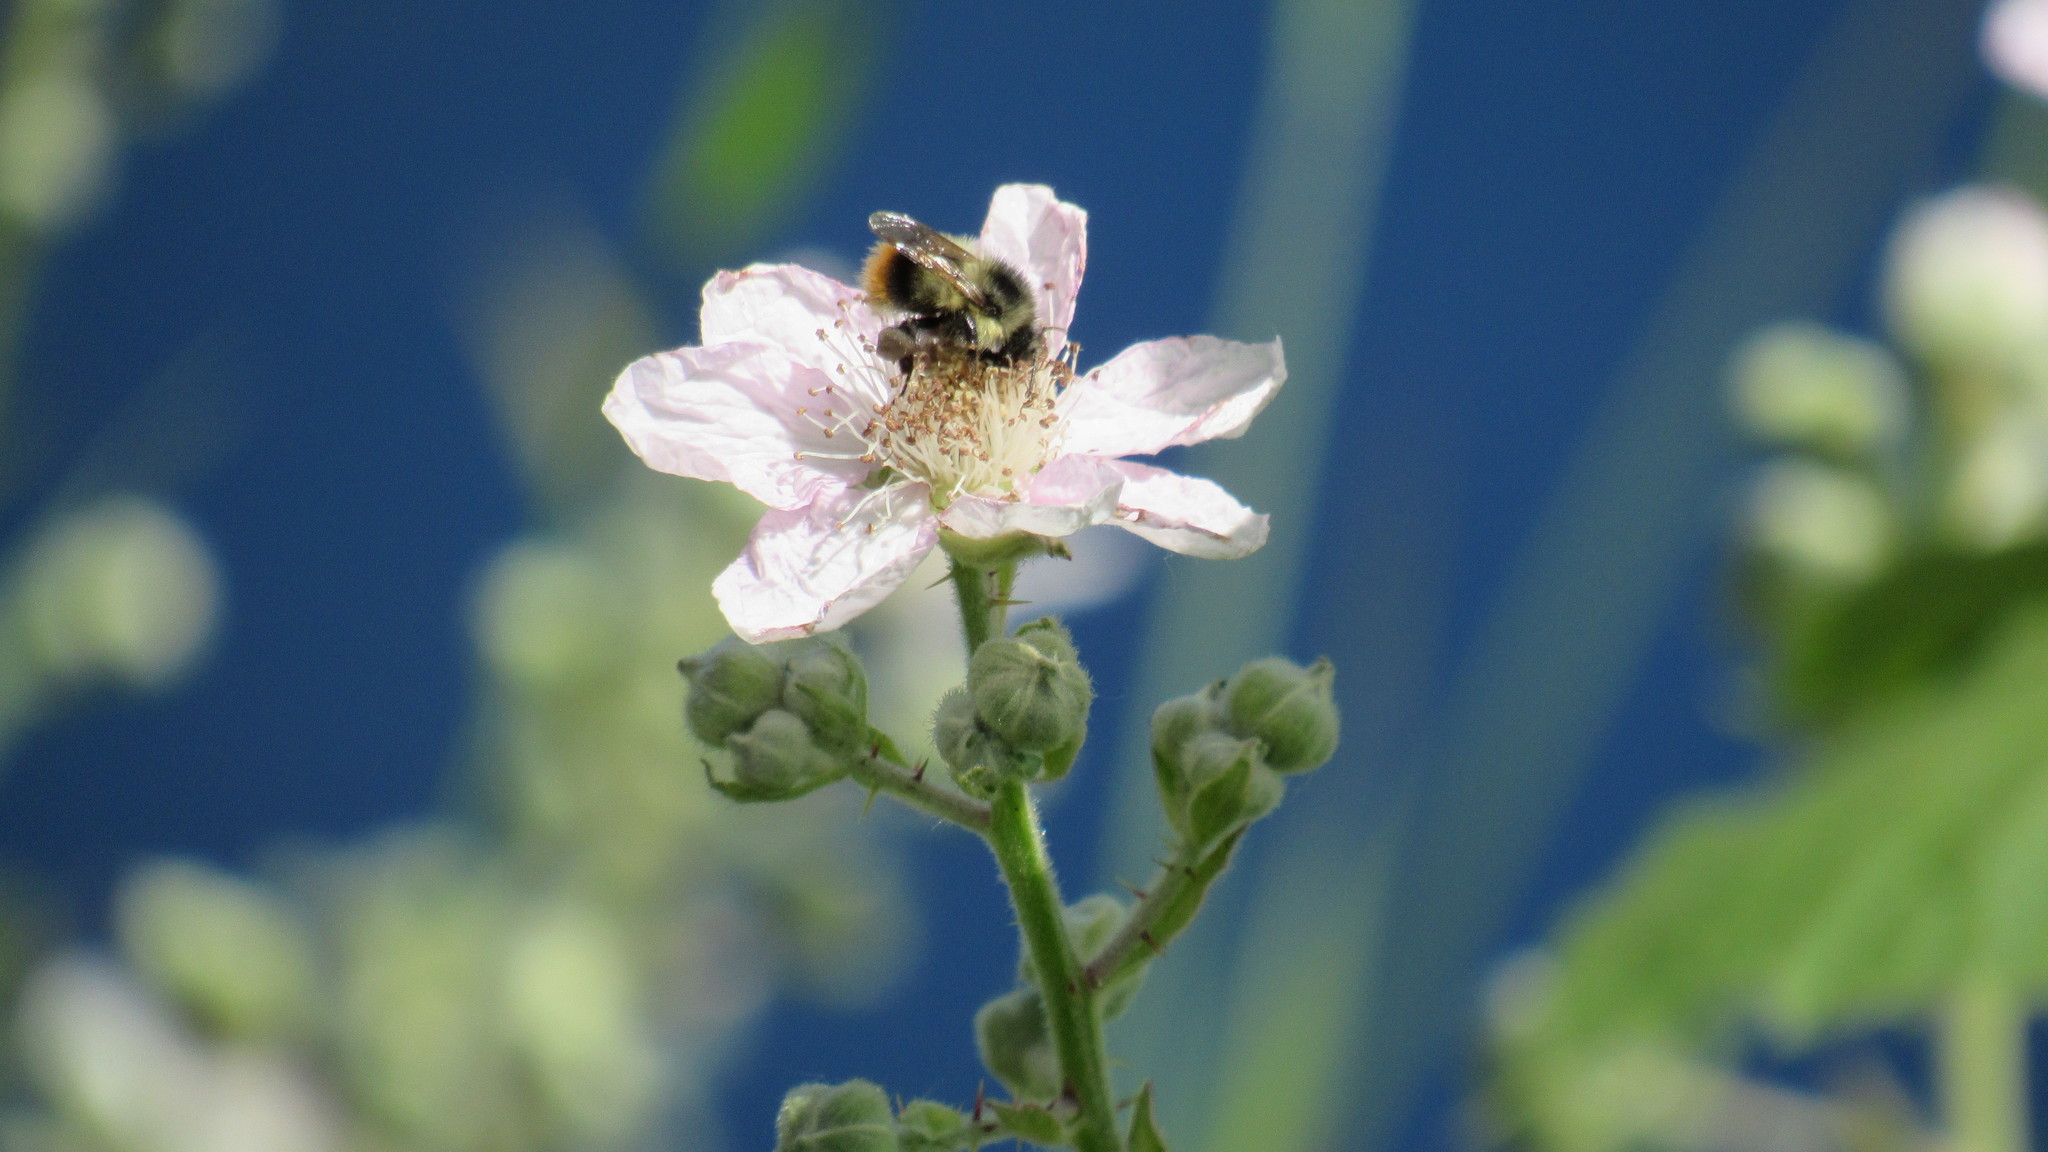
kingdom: Animalia
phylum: Arthropoda
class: Insecta
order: Hymenoptera
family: Apidae
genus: Bombus
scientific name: Bombus mixtus
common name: Fuzzy-horned bumble bee
